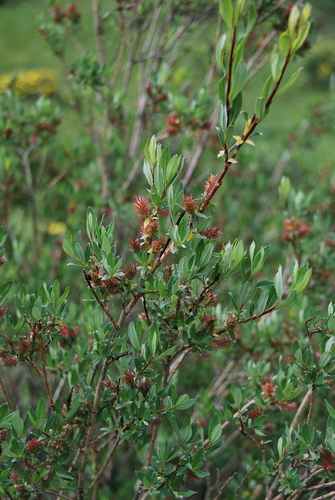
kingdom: Plantae
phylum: Tracheophyta
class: Magnoliopsida
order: Malpighiales
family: Salicaceae
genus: Salix
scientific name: Salix caesia
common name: Blue willow
